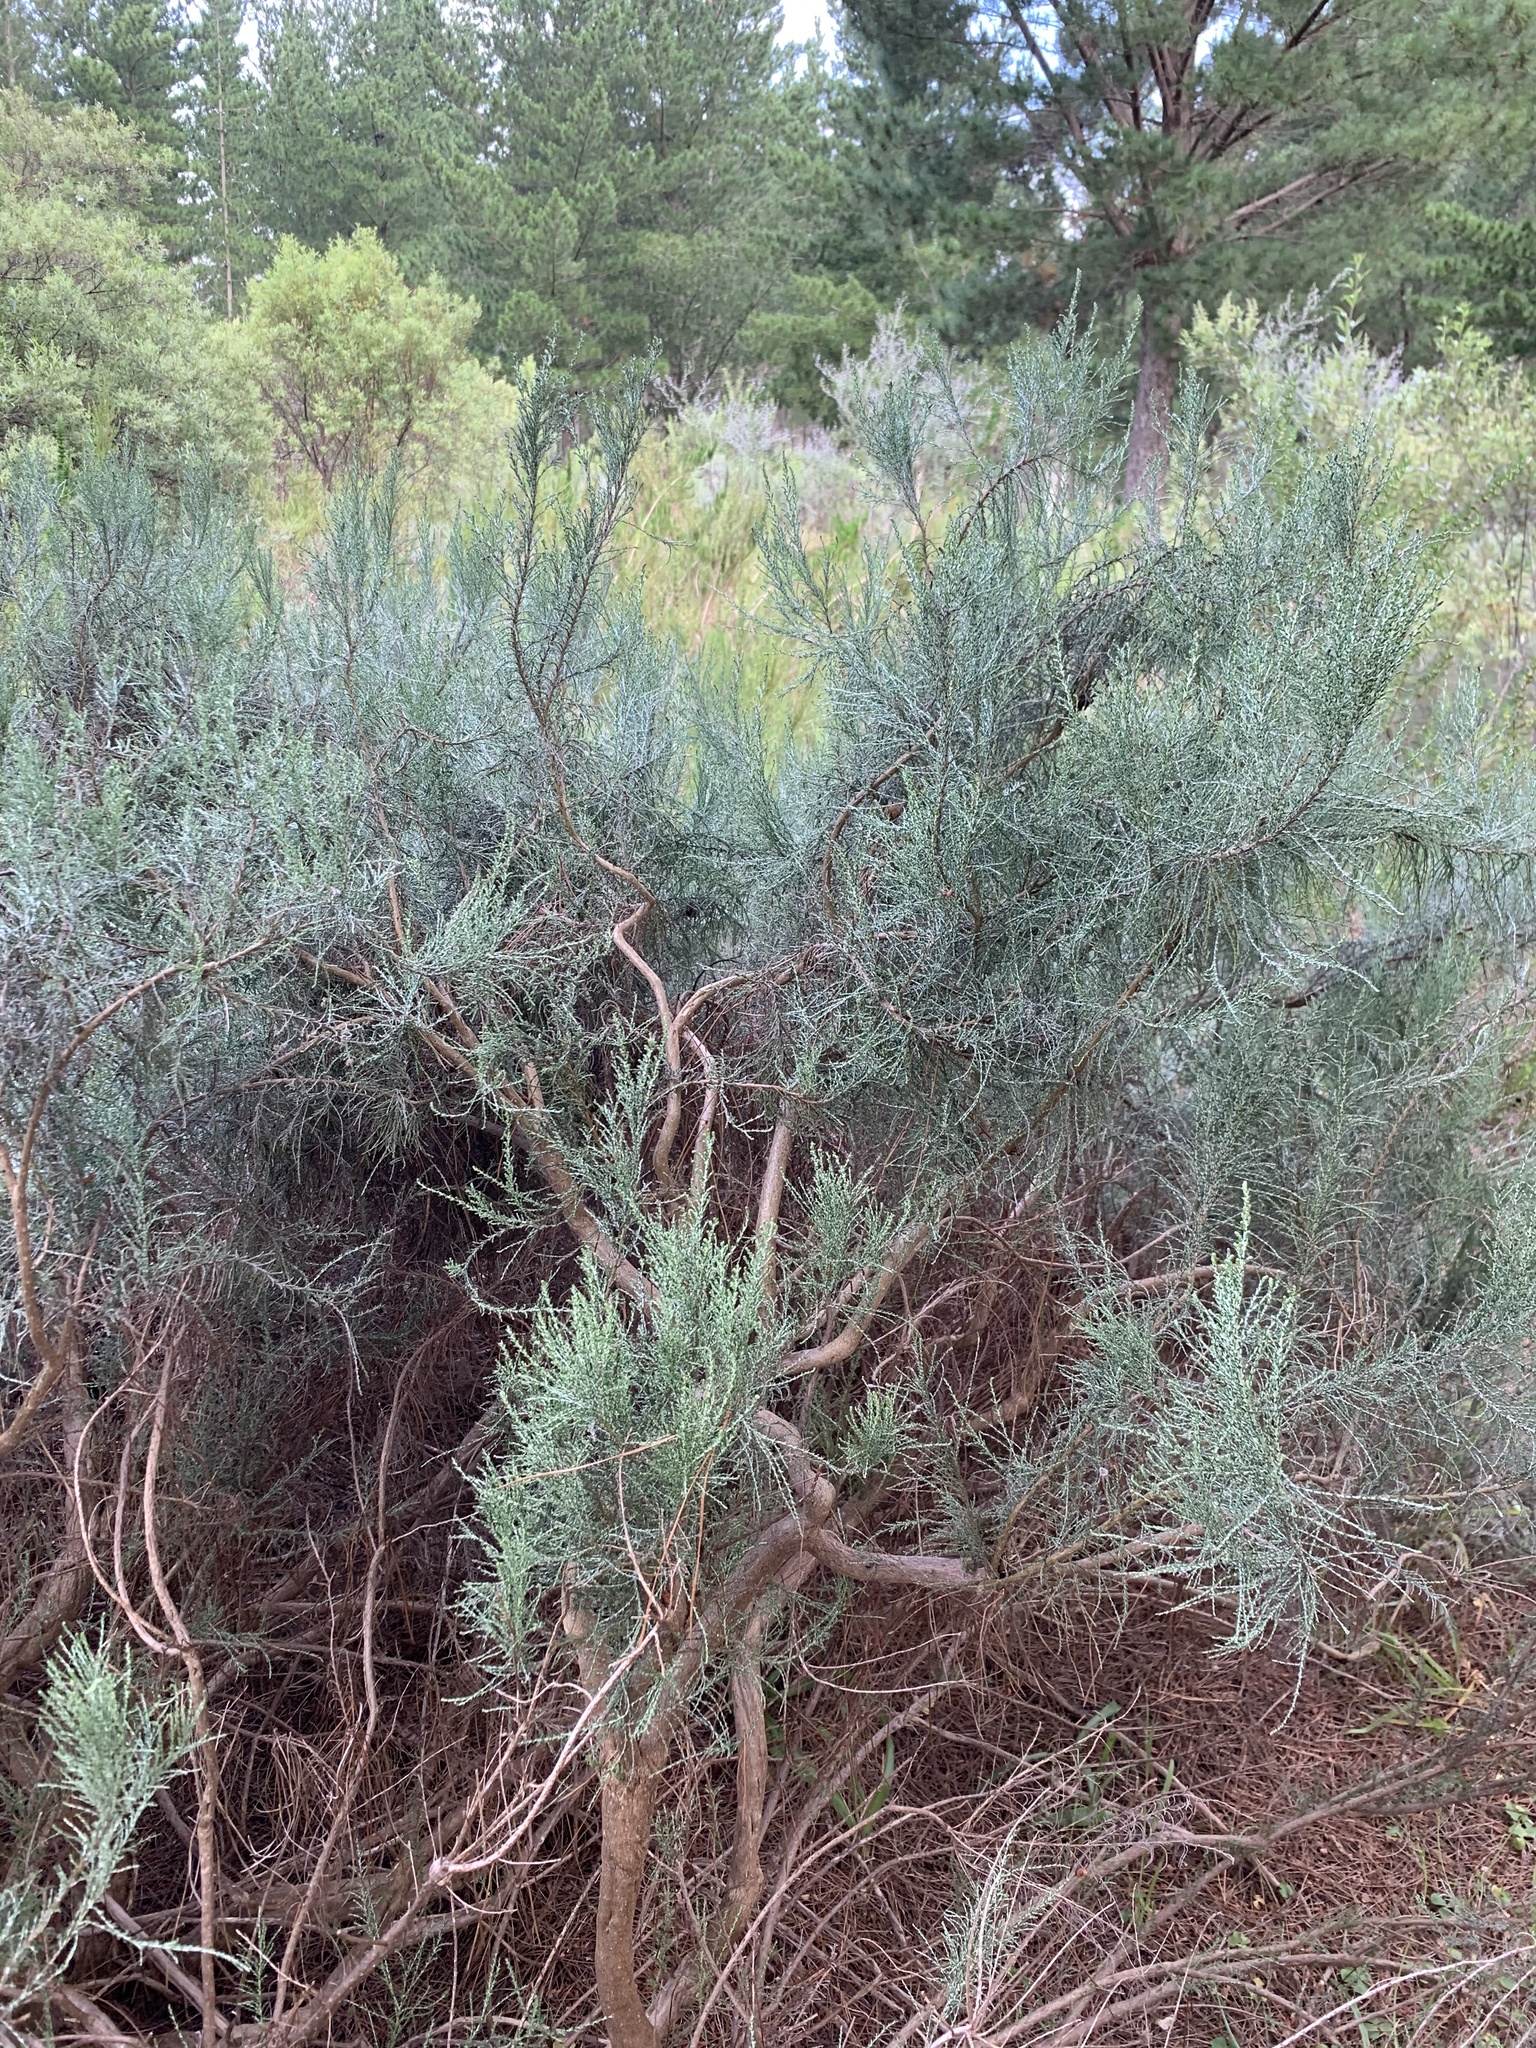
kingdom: Plantae
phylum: Tracheophyta
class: Magnoliopsida
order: Asterales
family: Asteraceae
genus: Dicerothamnus
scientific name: Dicerothamnus rhinocerotis
